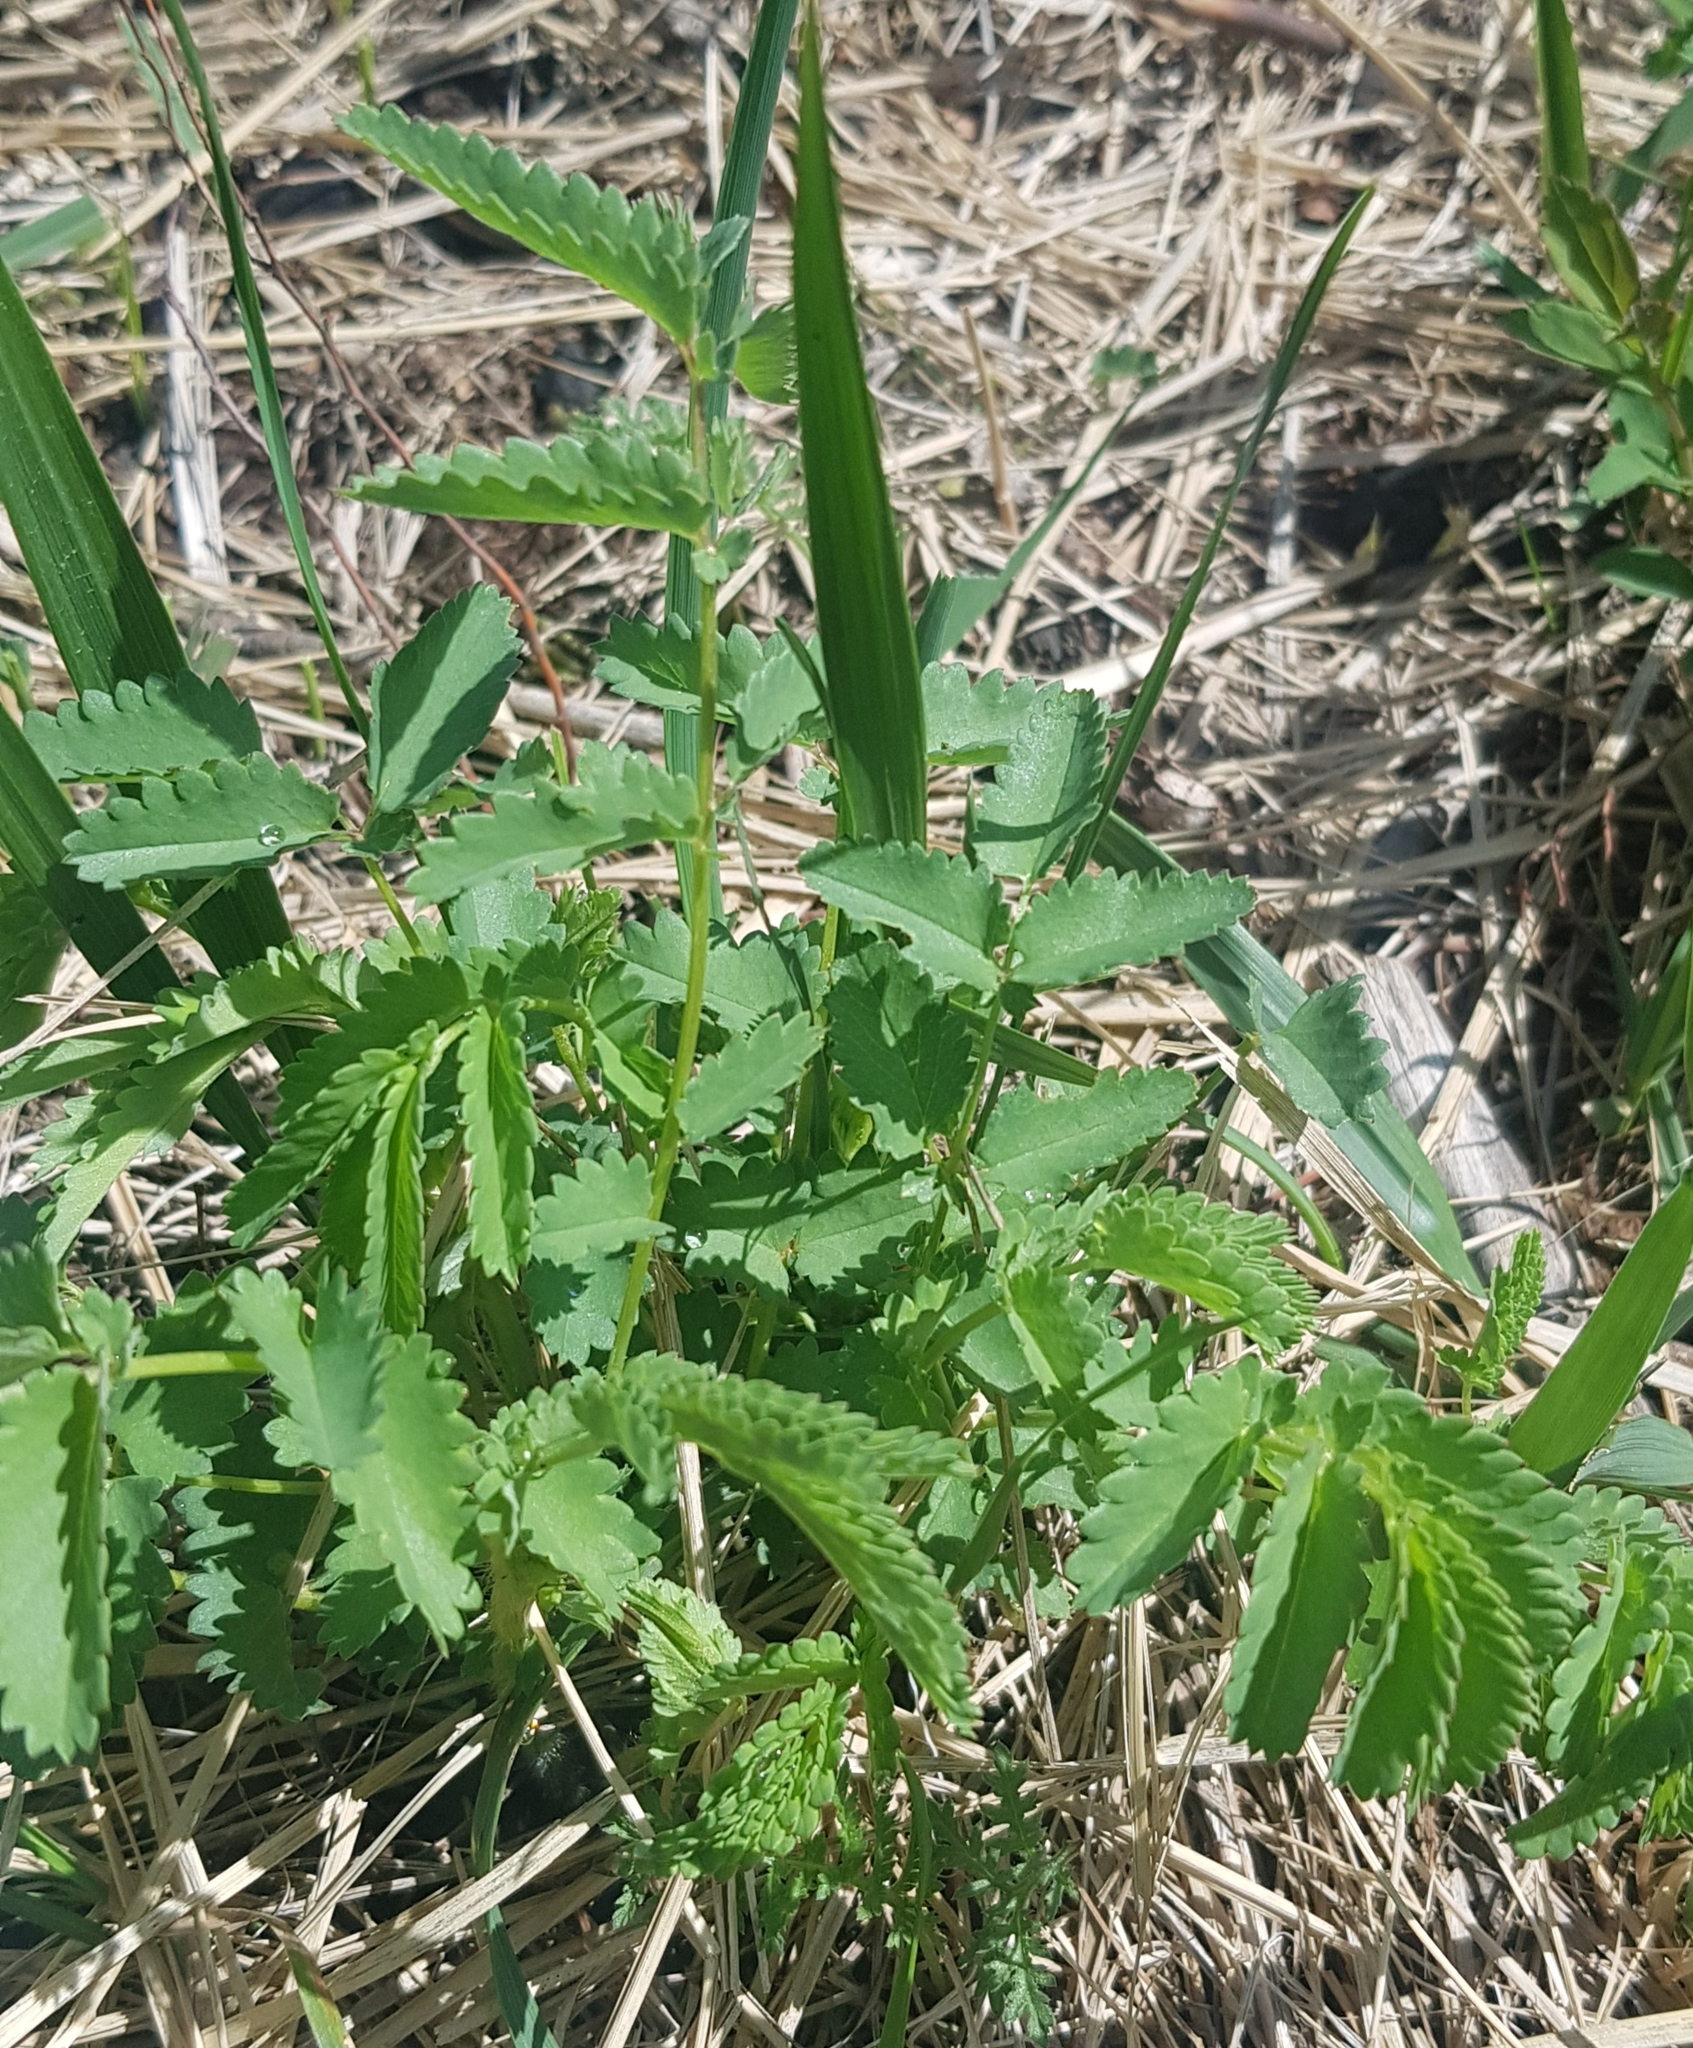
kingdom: Plantae
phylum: Tracheophyta
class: Magnoliopsida
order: Rosales
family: Rosaceae
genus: Sanguisorba
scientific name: Sanguisorba officinalis
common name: Great burnet
